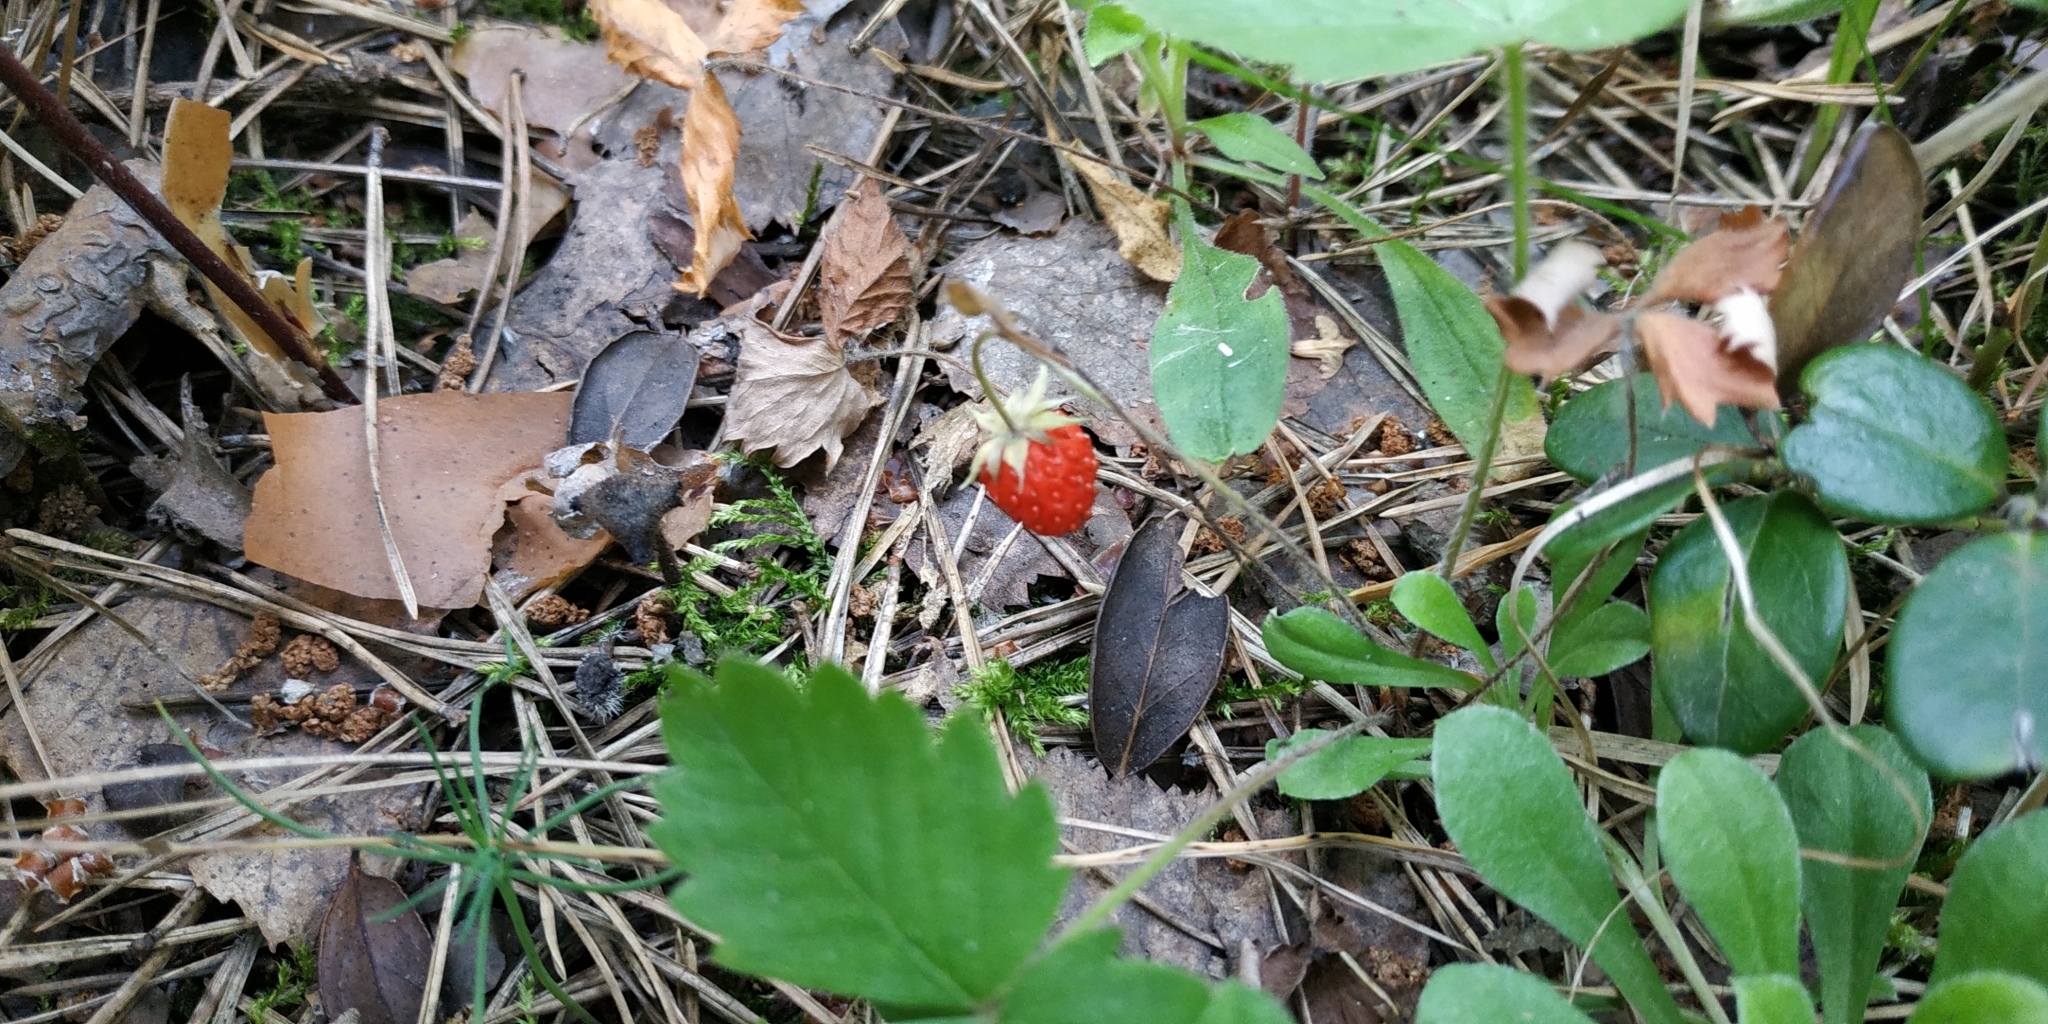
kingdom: Plantae
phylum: Tracheophyta
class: Magnoliopsida
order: Rosales
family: Rosaceae
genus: Fragaria
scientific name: Fragaria vesca
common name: Wild strawberry
